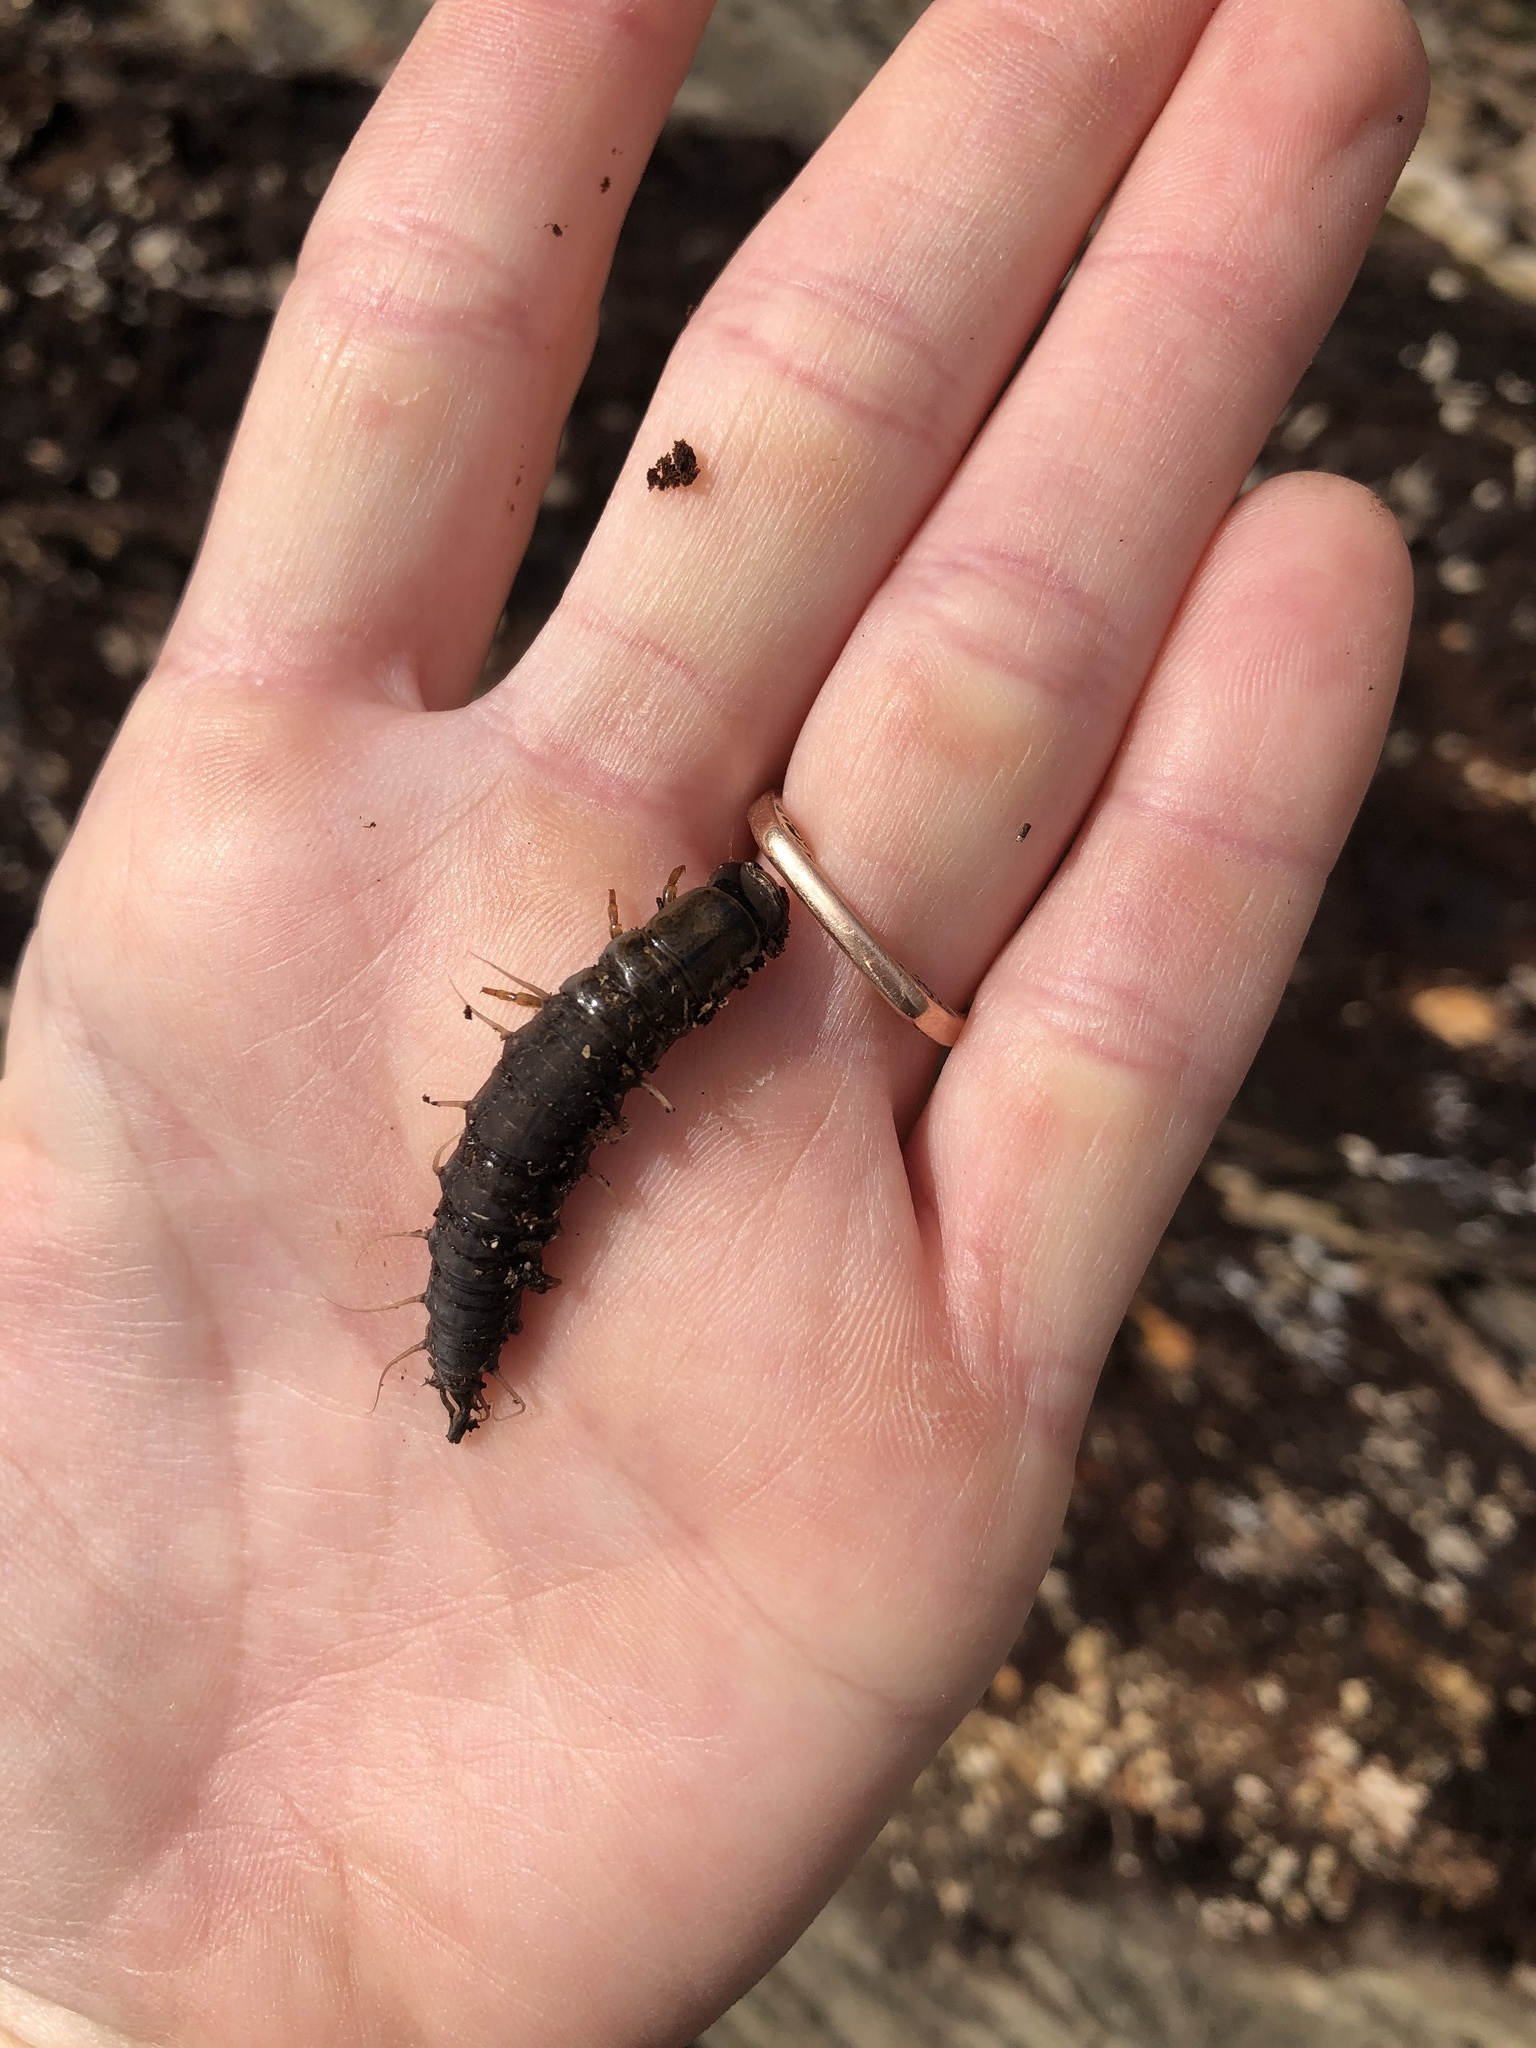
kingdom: Animalia
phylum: Arthropoda
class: Insecta
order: Megaloptera
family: Corydalidae
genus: Chauliodes
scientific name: Chauliodes rastricornis
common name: Spring fishfly
